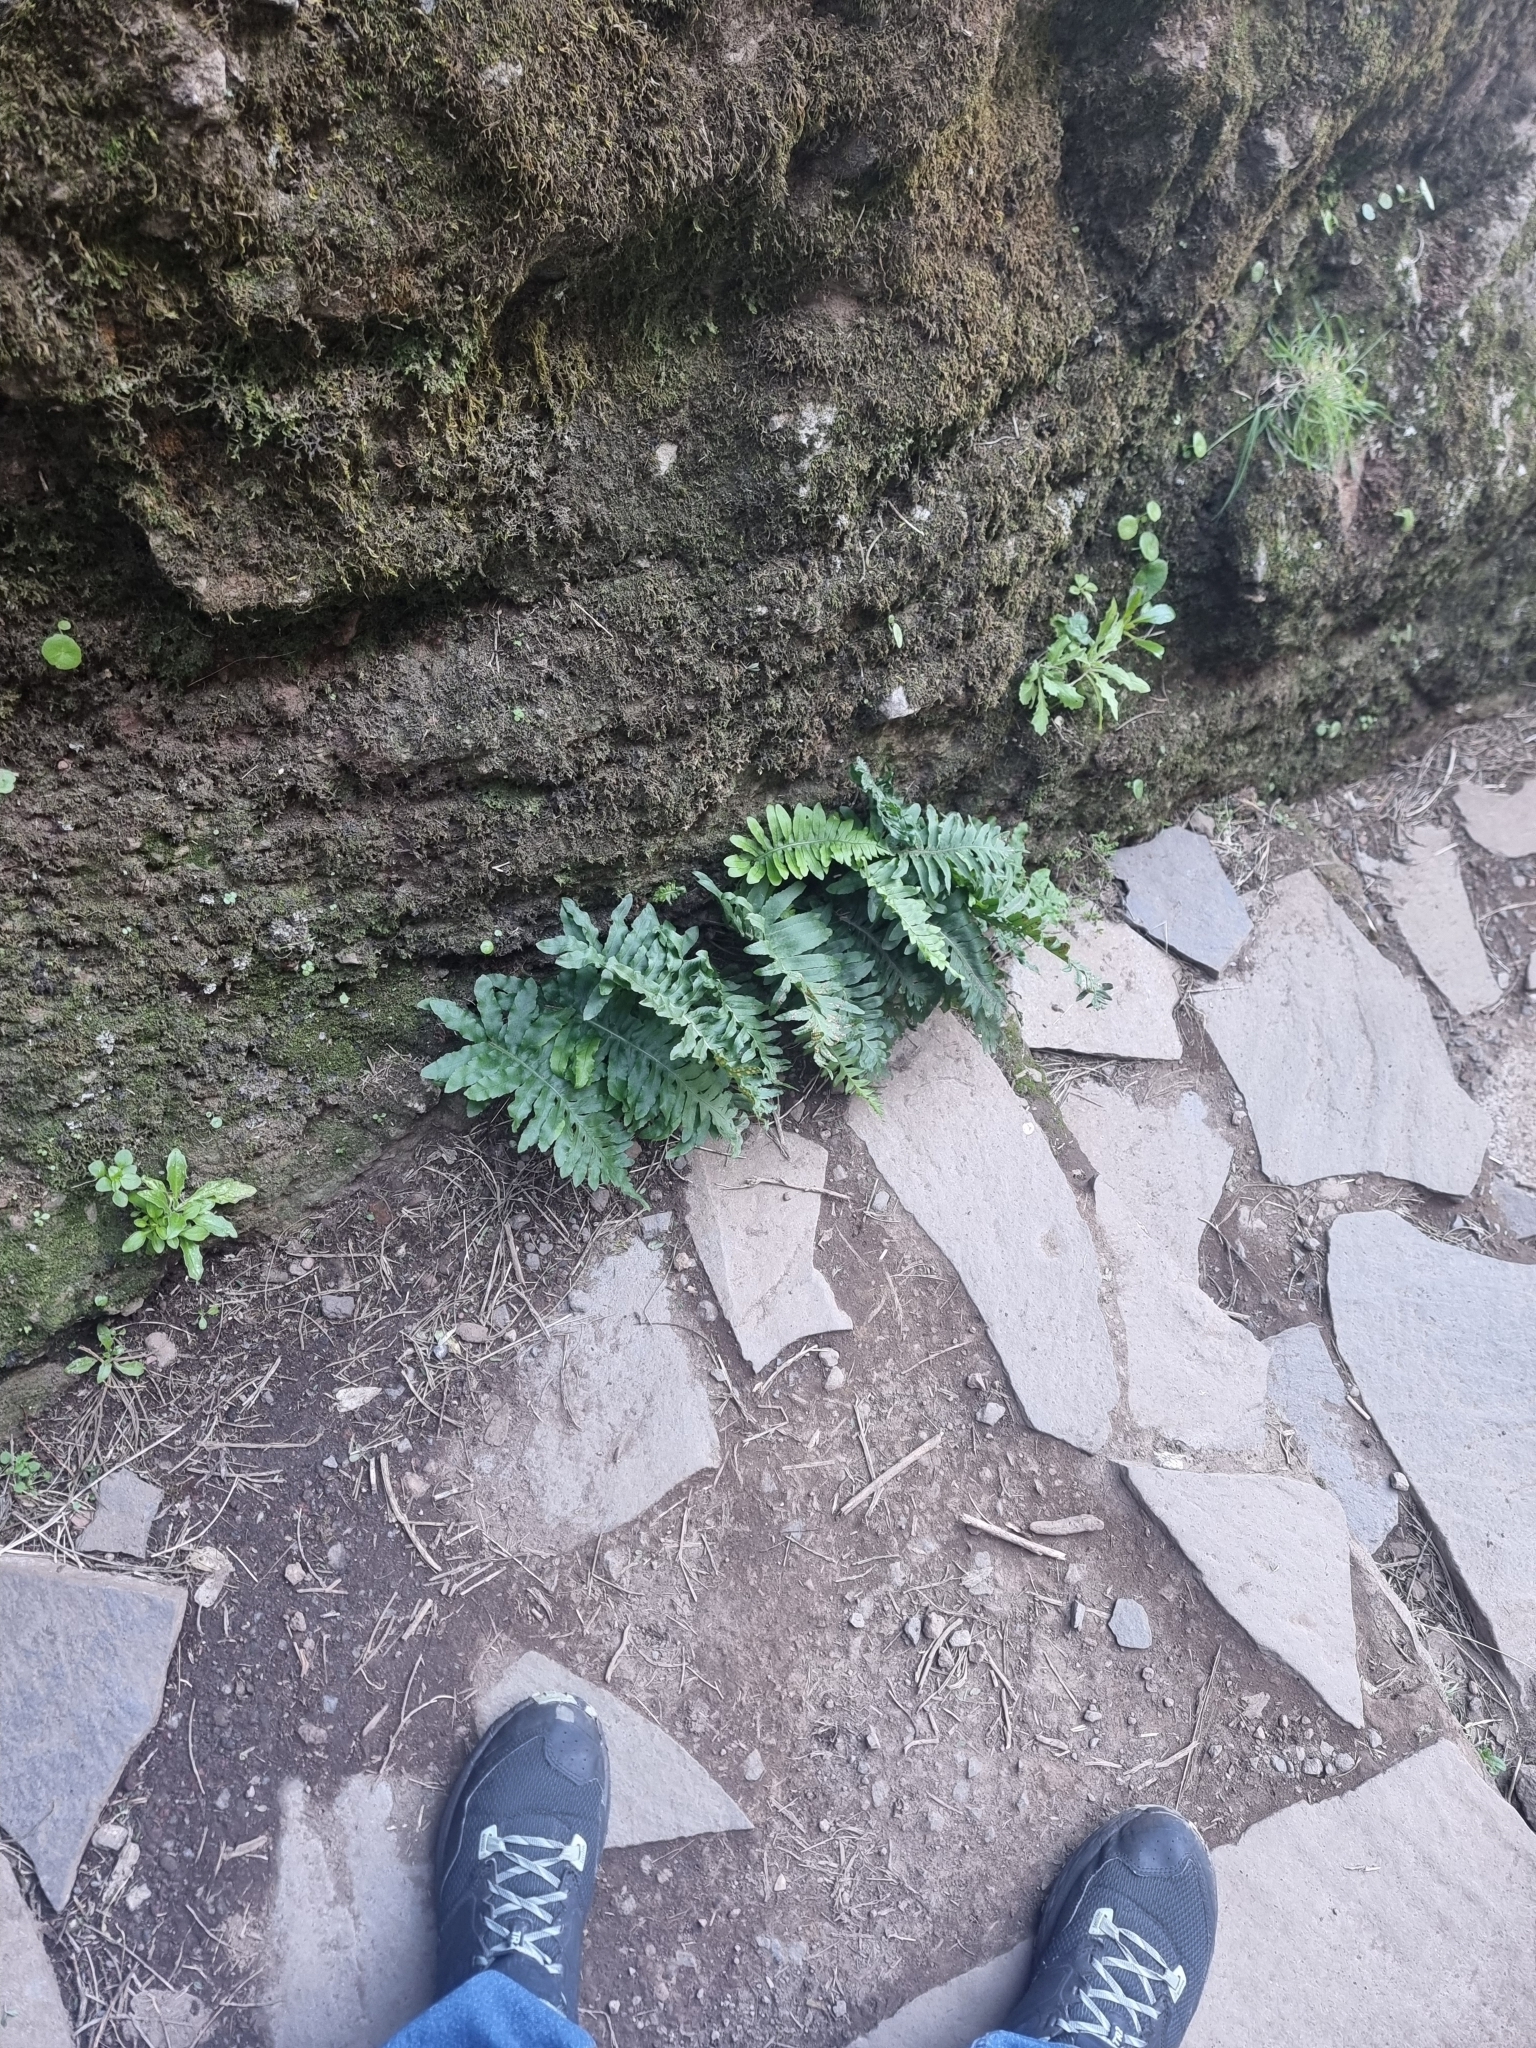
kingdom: Plantae
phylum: Tracheophyta
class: Polypodiopsida
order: Polypodiales
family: Polypodiaceae
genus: Polypodium
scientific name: Polypodium macaronesicum
